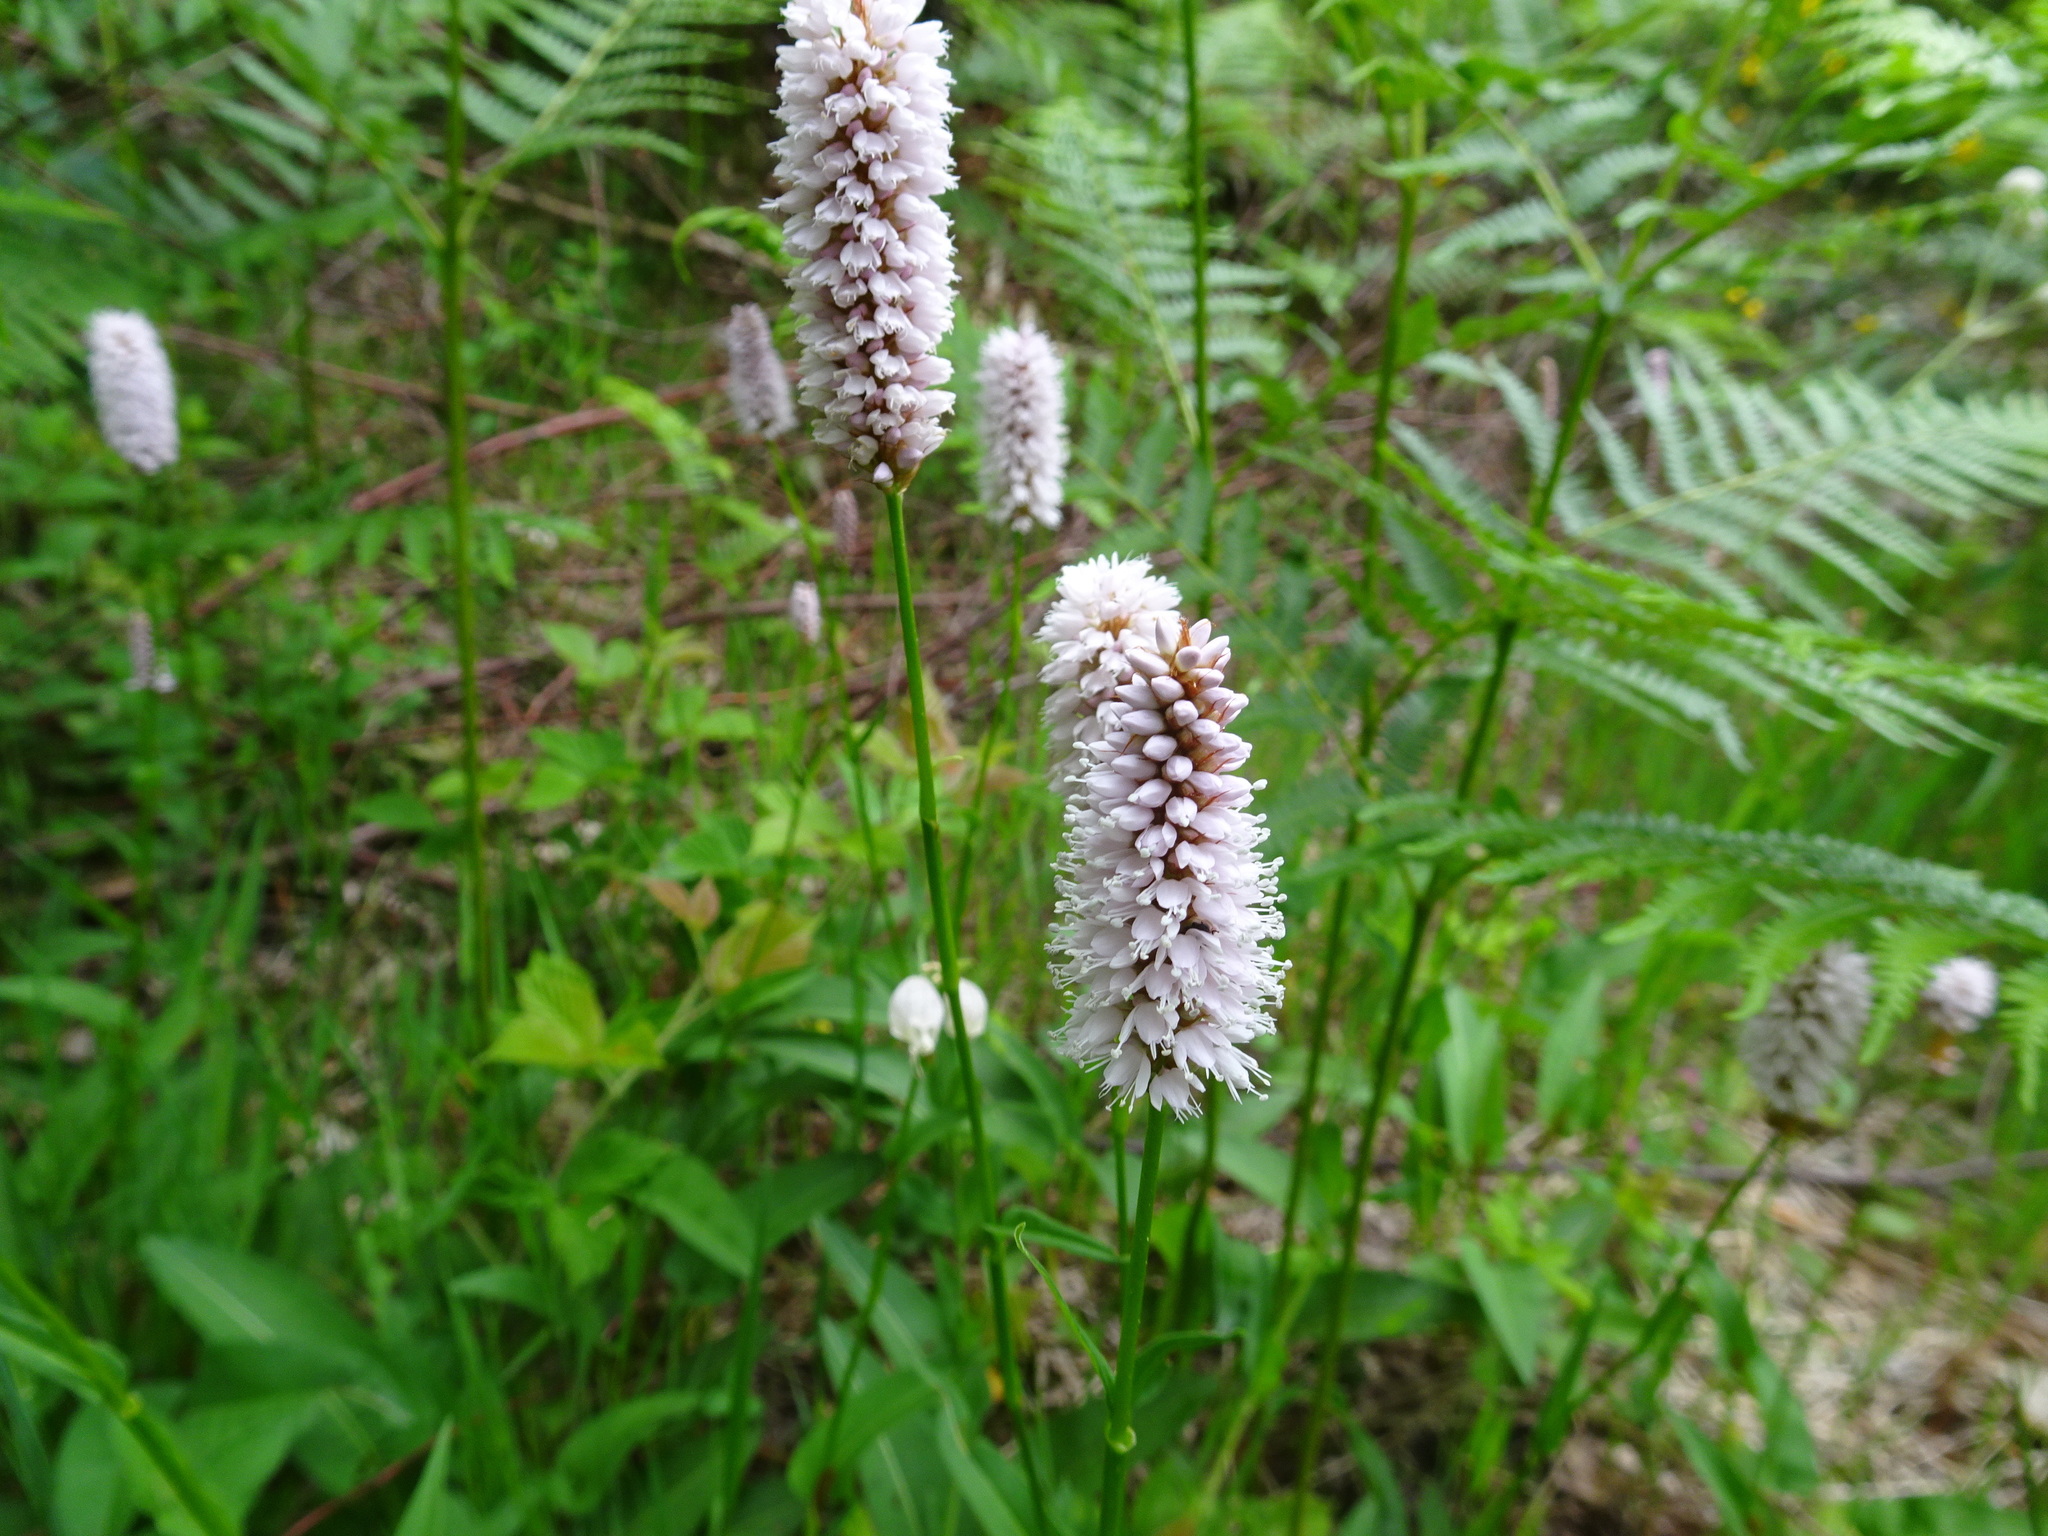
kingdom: Plantae
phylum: Tracheophyta
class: Magnoliopsida
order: Caryophyllales
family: Polygonaceae
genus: Bistorta
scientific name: Bistorta officinalis
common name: Common bistort
